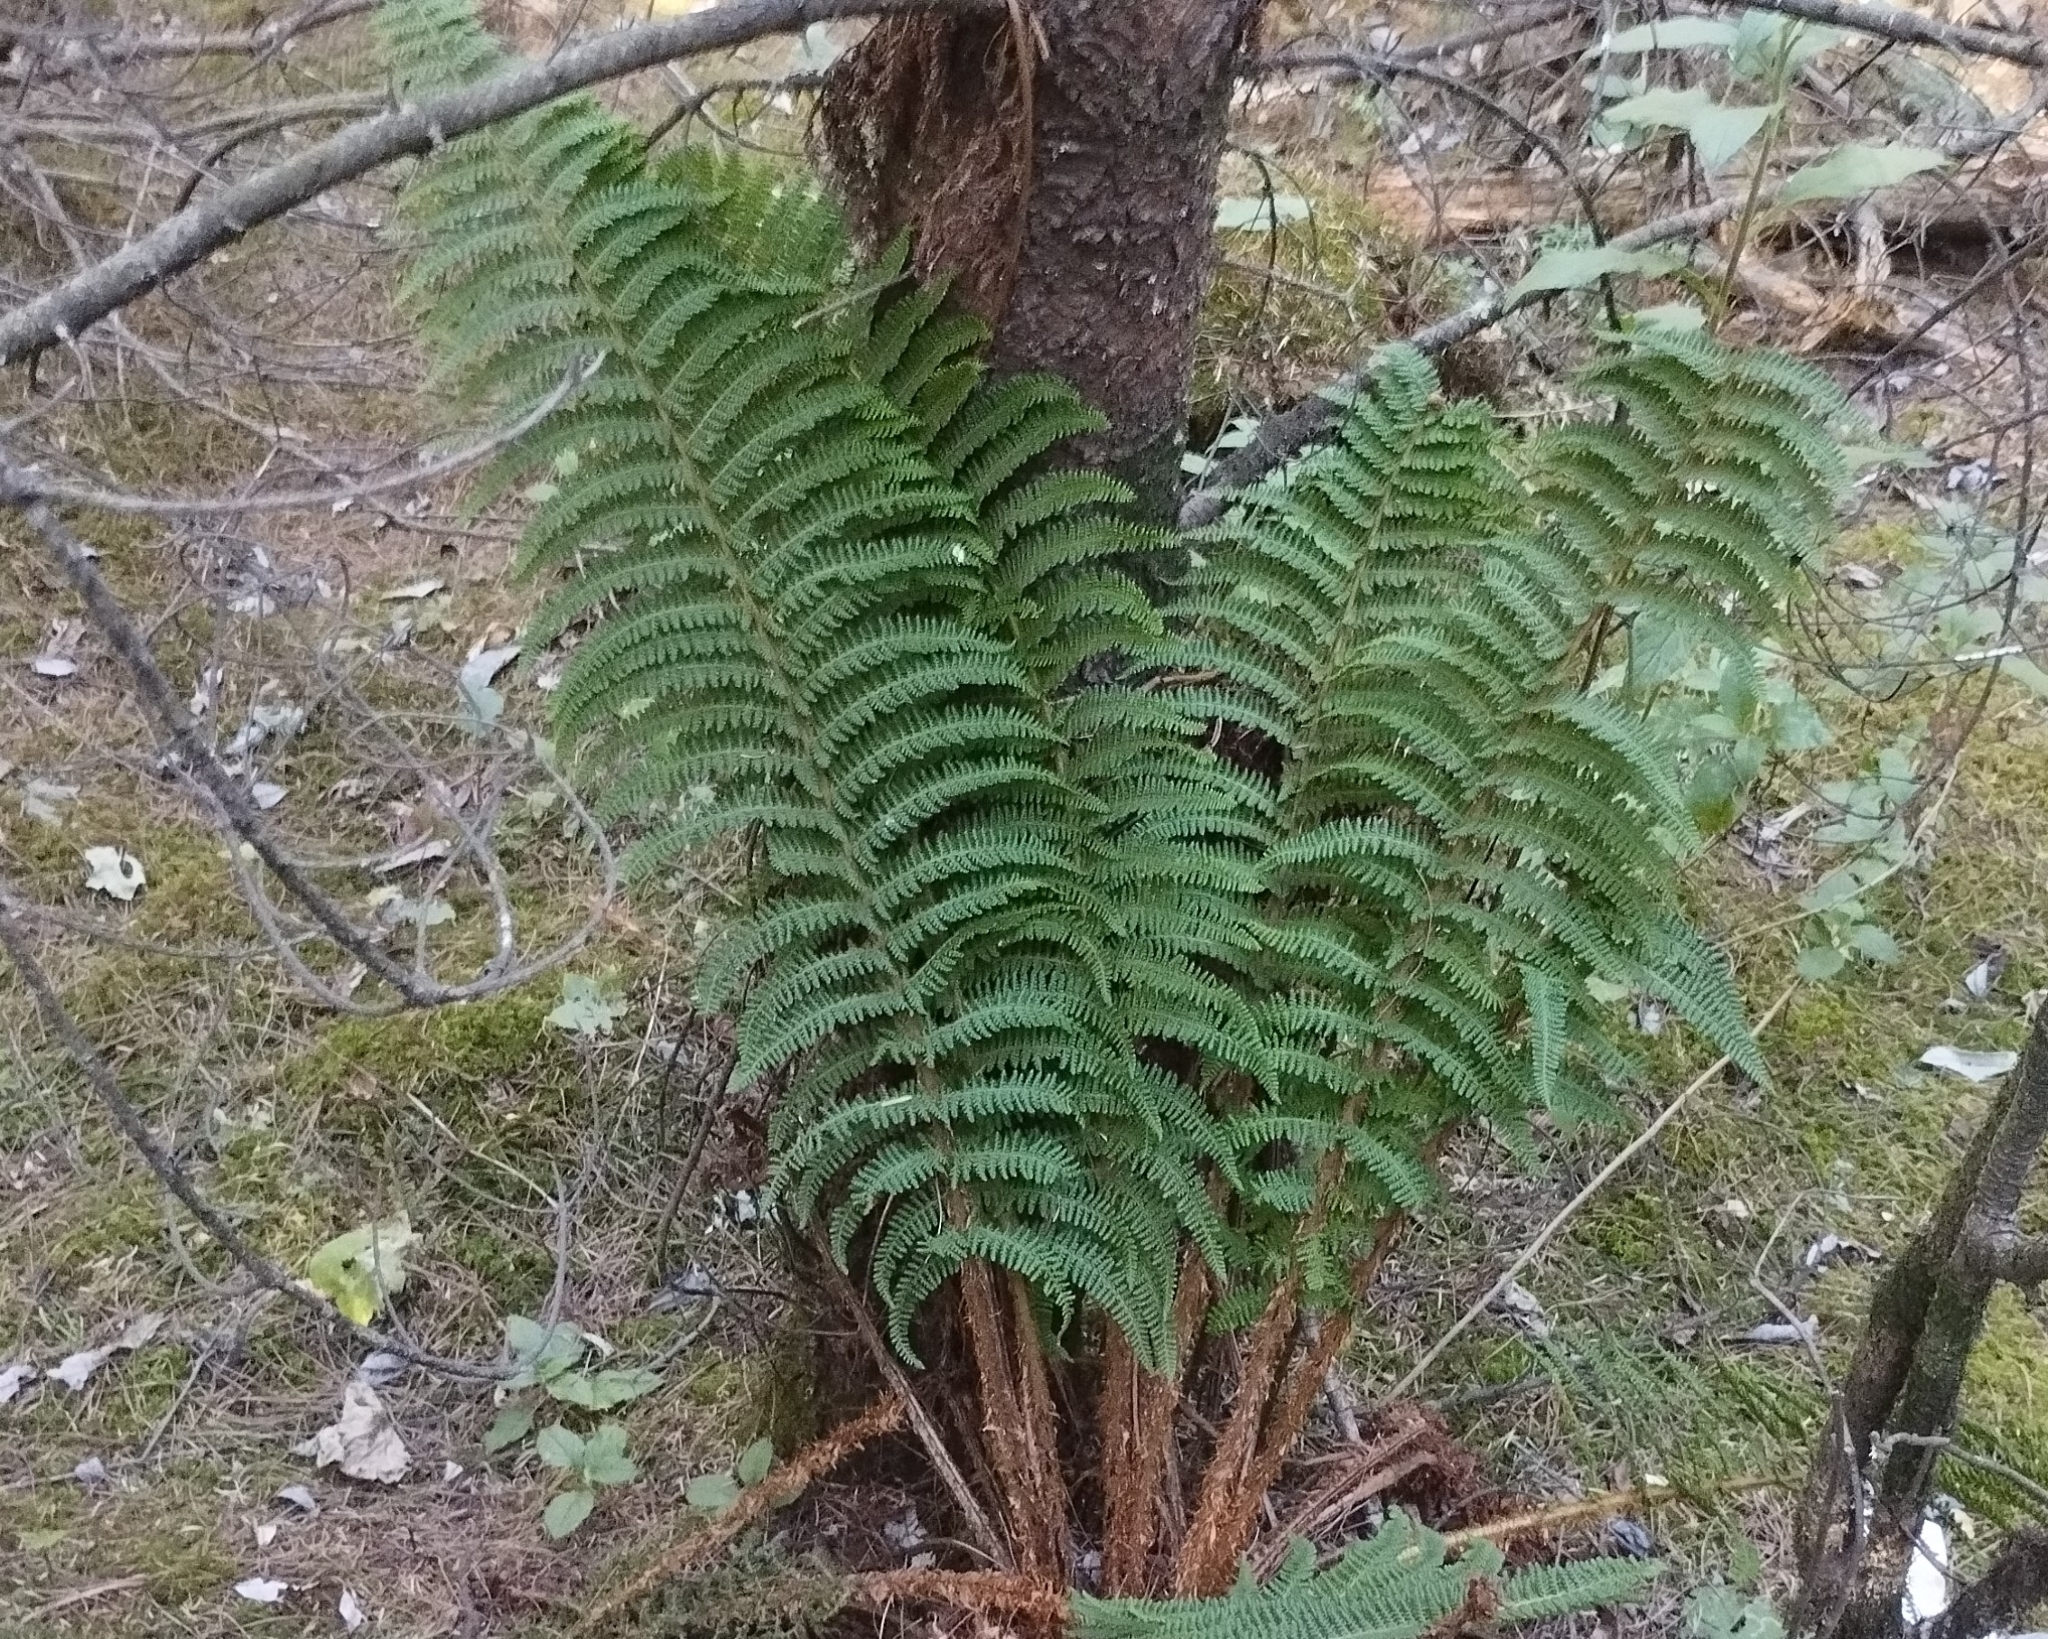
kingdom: Plantae
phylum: Tracheophyta
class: Polypodiopsida
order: Polypodiales
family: Dryopteridaceae
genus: Polystichum
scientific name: Polystichum speciosissimum
